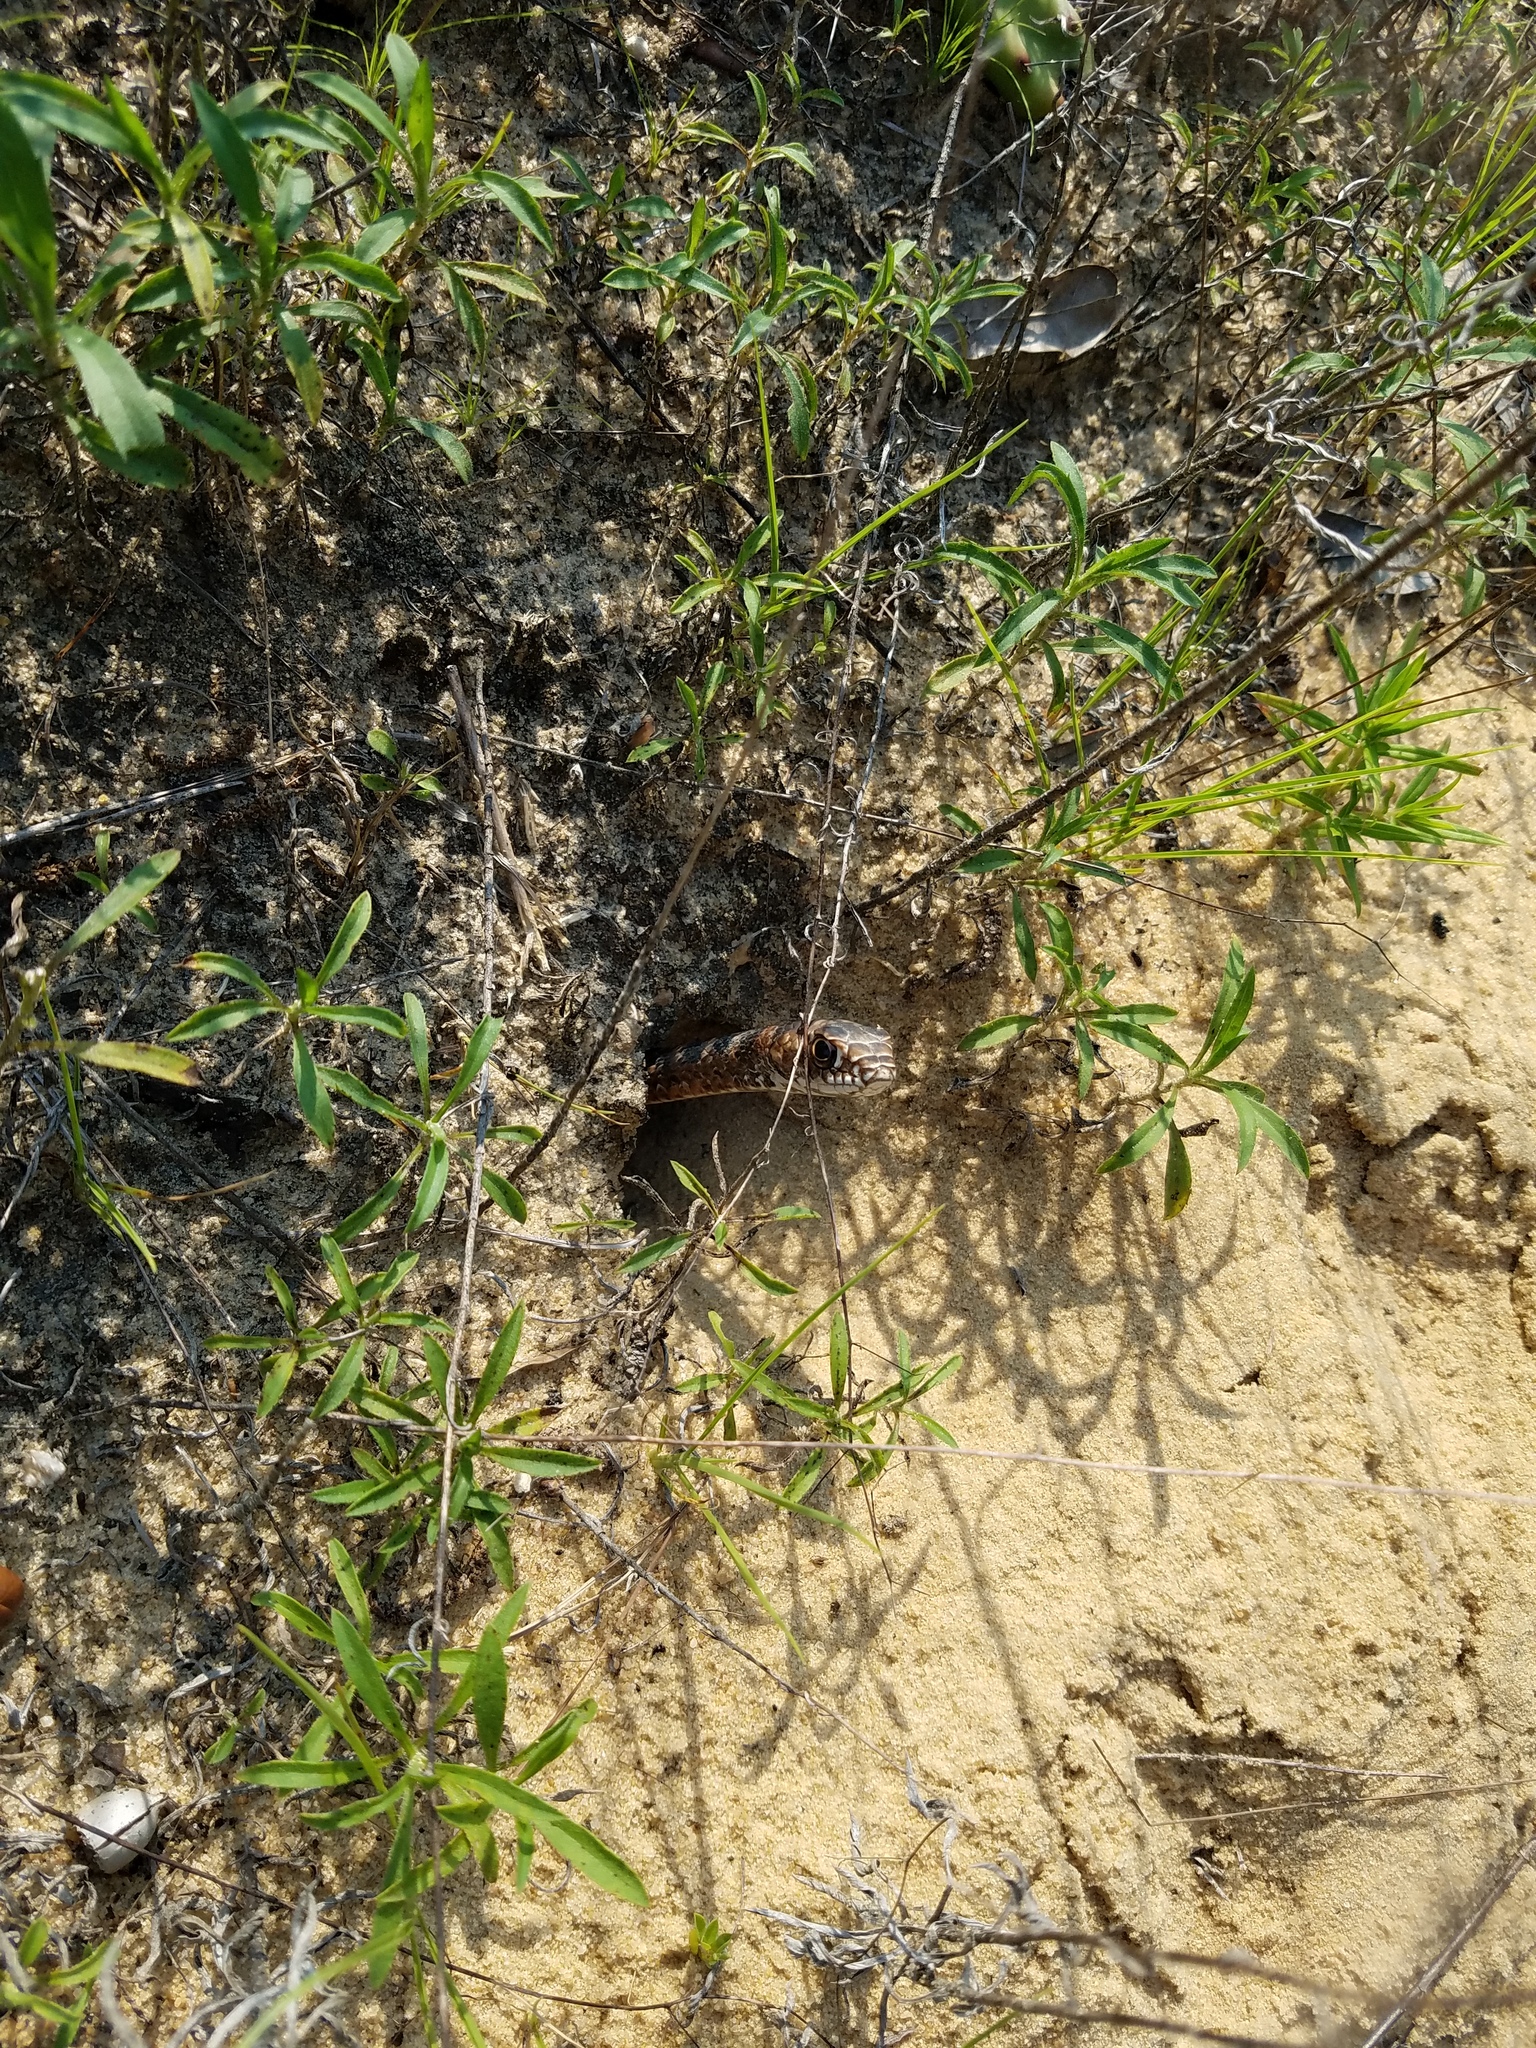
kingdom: Animalia
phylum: Chordata
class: Squamata
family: Colubridae
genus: Masticophis
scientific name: Masticophis flagellum
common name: Coachwhip
